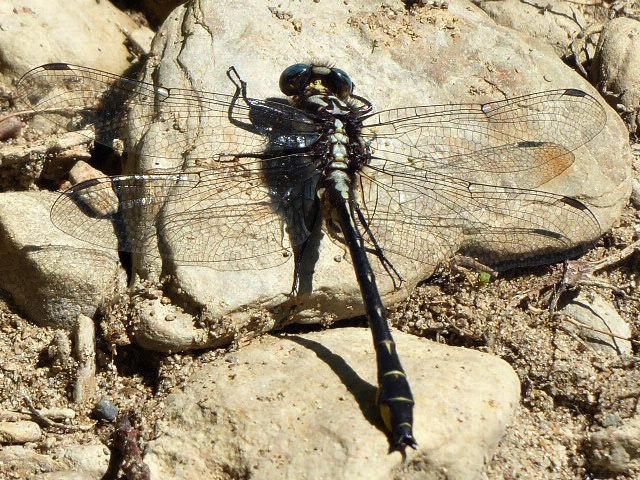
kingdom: Animalia
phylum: Arthropoda
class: Insecta
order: Odonata
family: Gomphidae
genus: Phanogomphus
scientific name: Phanogomphus quadricolor
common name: Rapids clubtail
